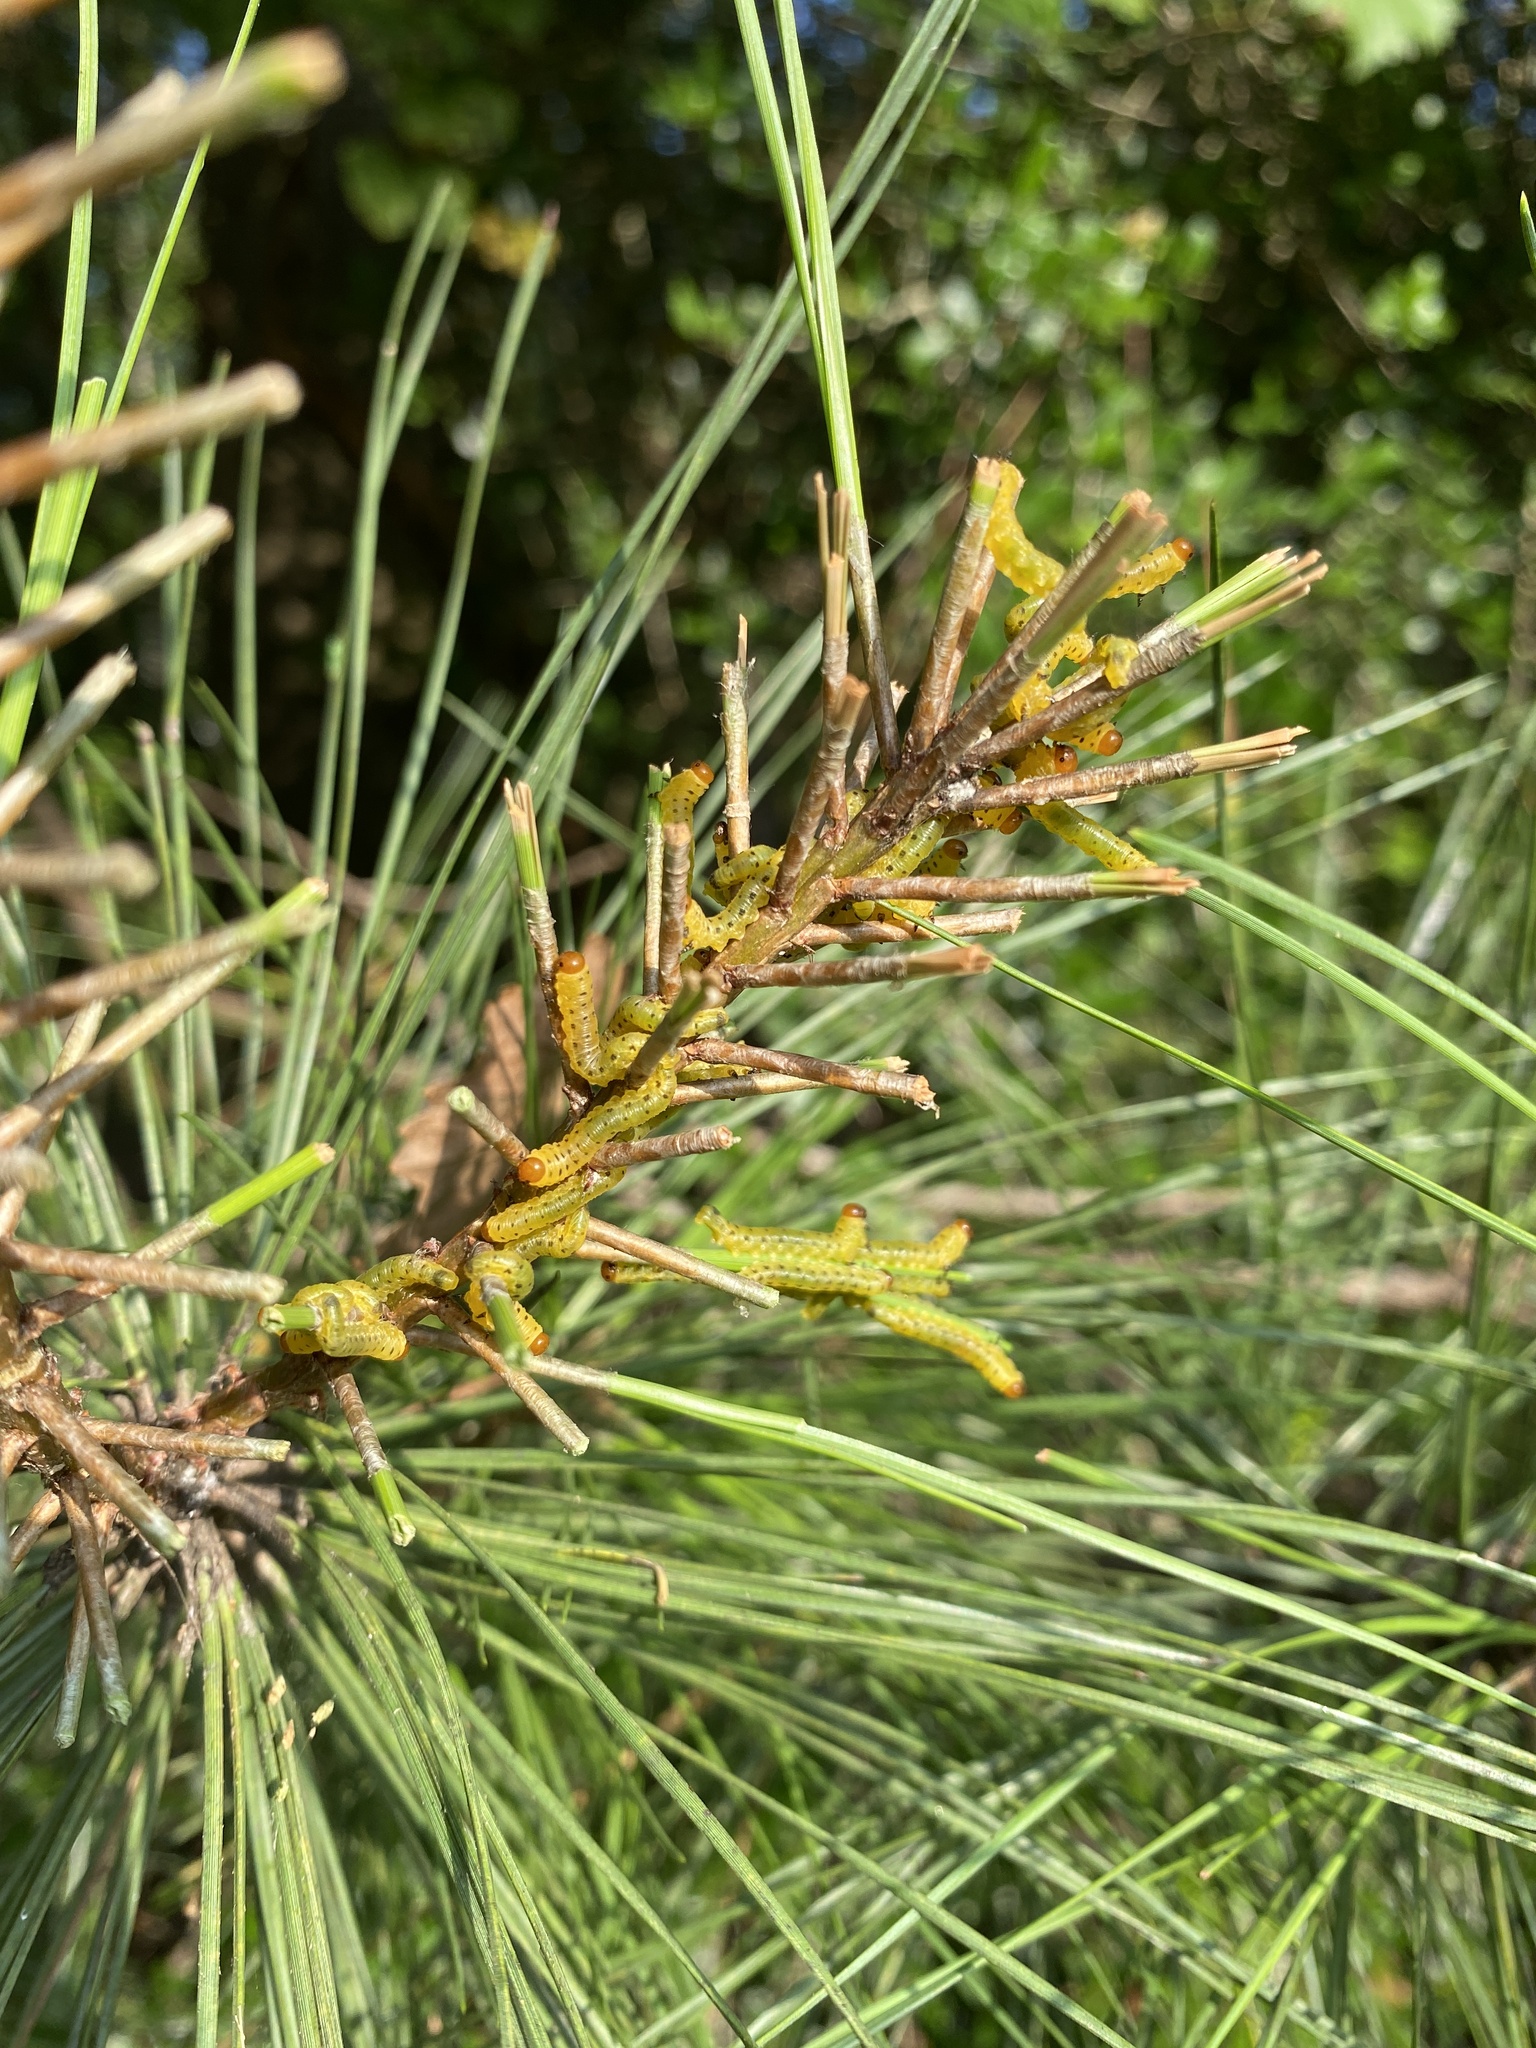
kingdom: Animalia
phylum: Arthropoda
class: Insecta
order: Hymenoptera
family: Diprionidae
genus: Neodiprion
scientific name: Neodiprion lecontei
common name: Redheaded pine sawfly
